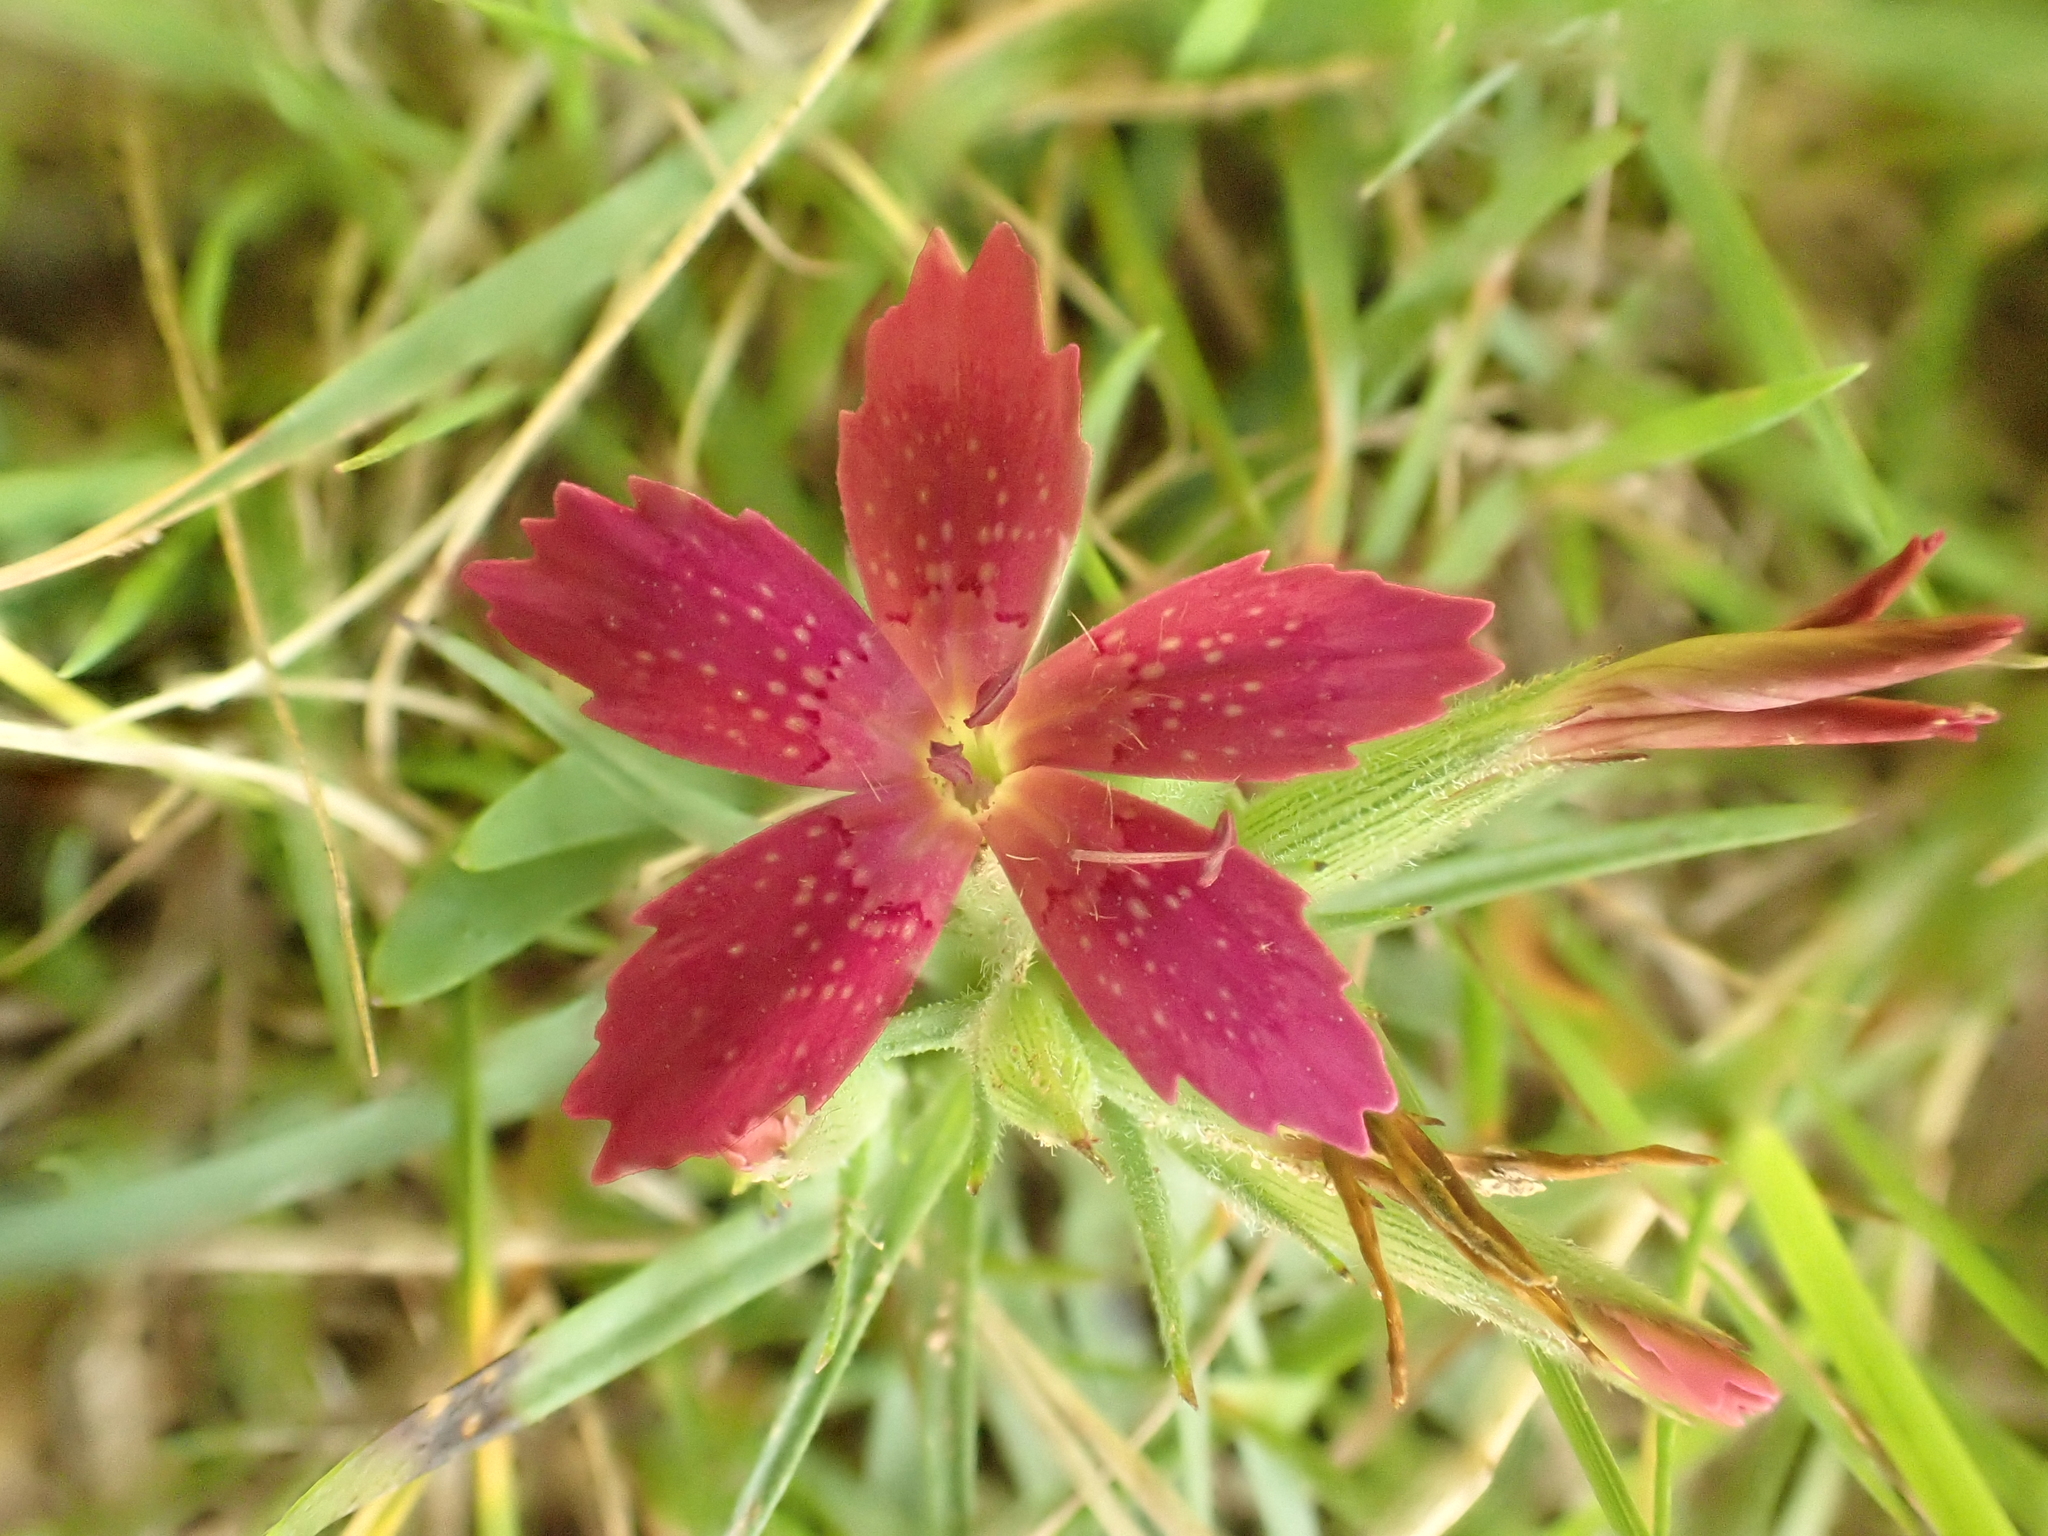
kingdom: Plantae
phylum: Tracheophyta
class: Magnoliopsida
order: Caryophyllales
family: Caryophyllaceae
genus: Dianthus
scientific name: Dianthus armeria
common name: Deptford pink
